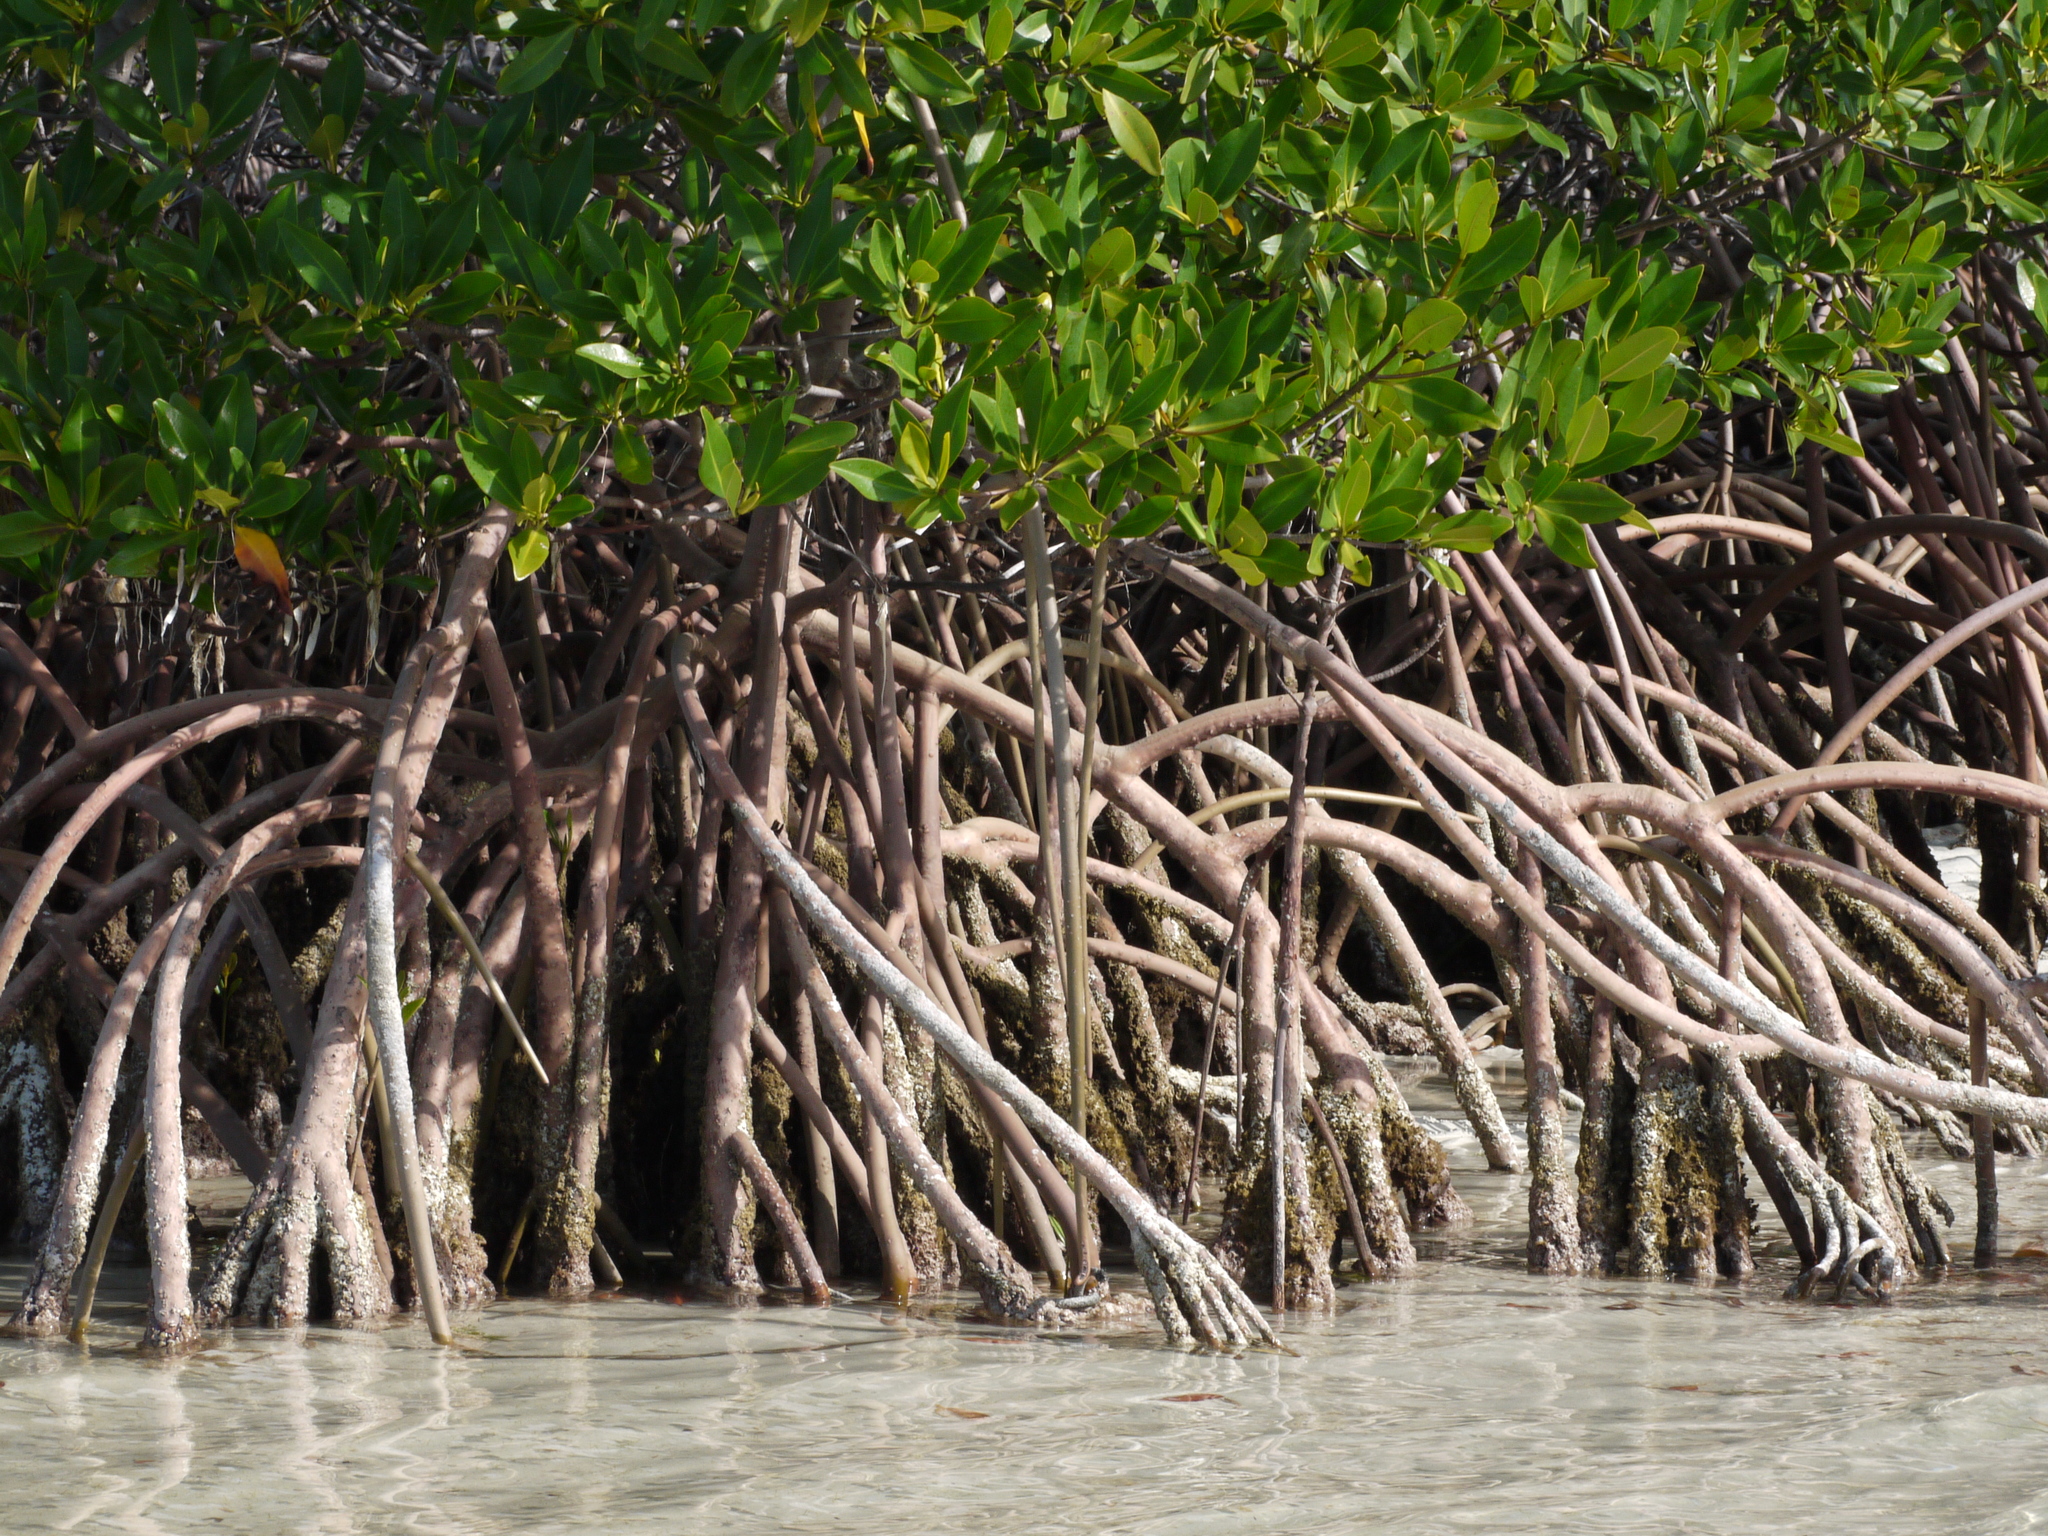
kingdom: Plantae
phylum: Tracheophyta
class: Magnoliopsida
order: Malpighiales
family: Rhizophoraceae
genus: Rhizophora
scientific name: Rhizophora mangle
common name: Red mangrove
